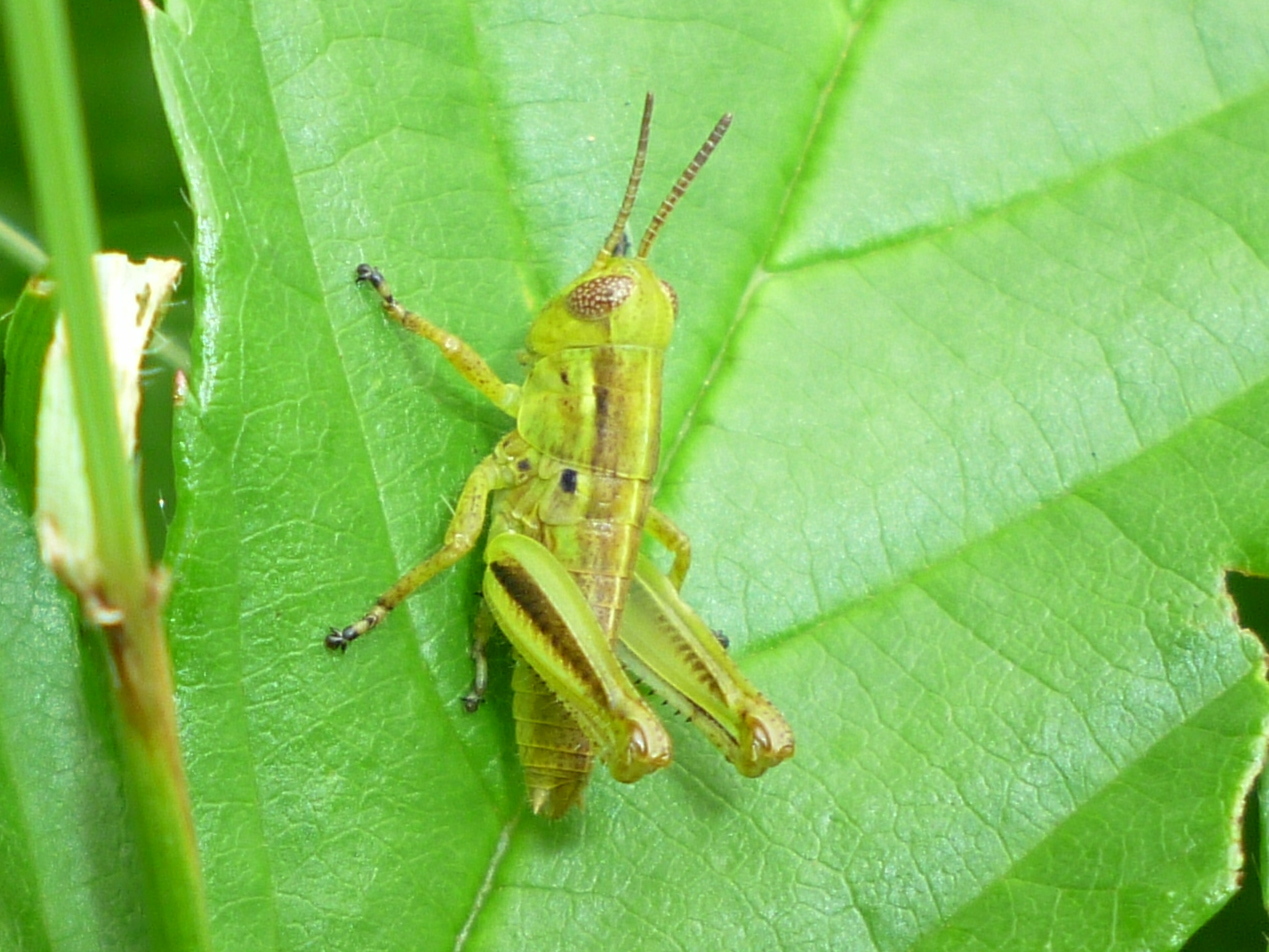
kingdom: Animalia
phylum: Arthropoda
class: Insecta
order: Orthoptera
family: Acrididae
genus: Melanoplus
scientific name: Melanoplus bivittatus
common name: Two-striped grasshopper
